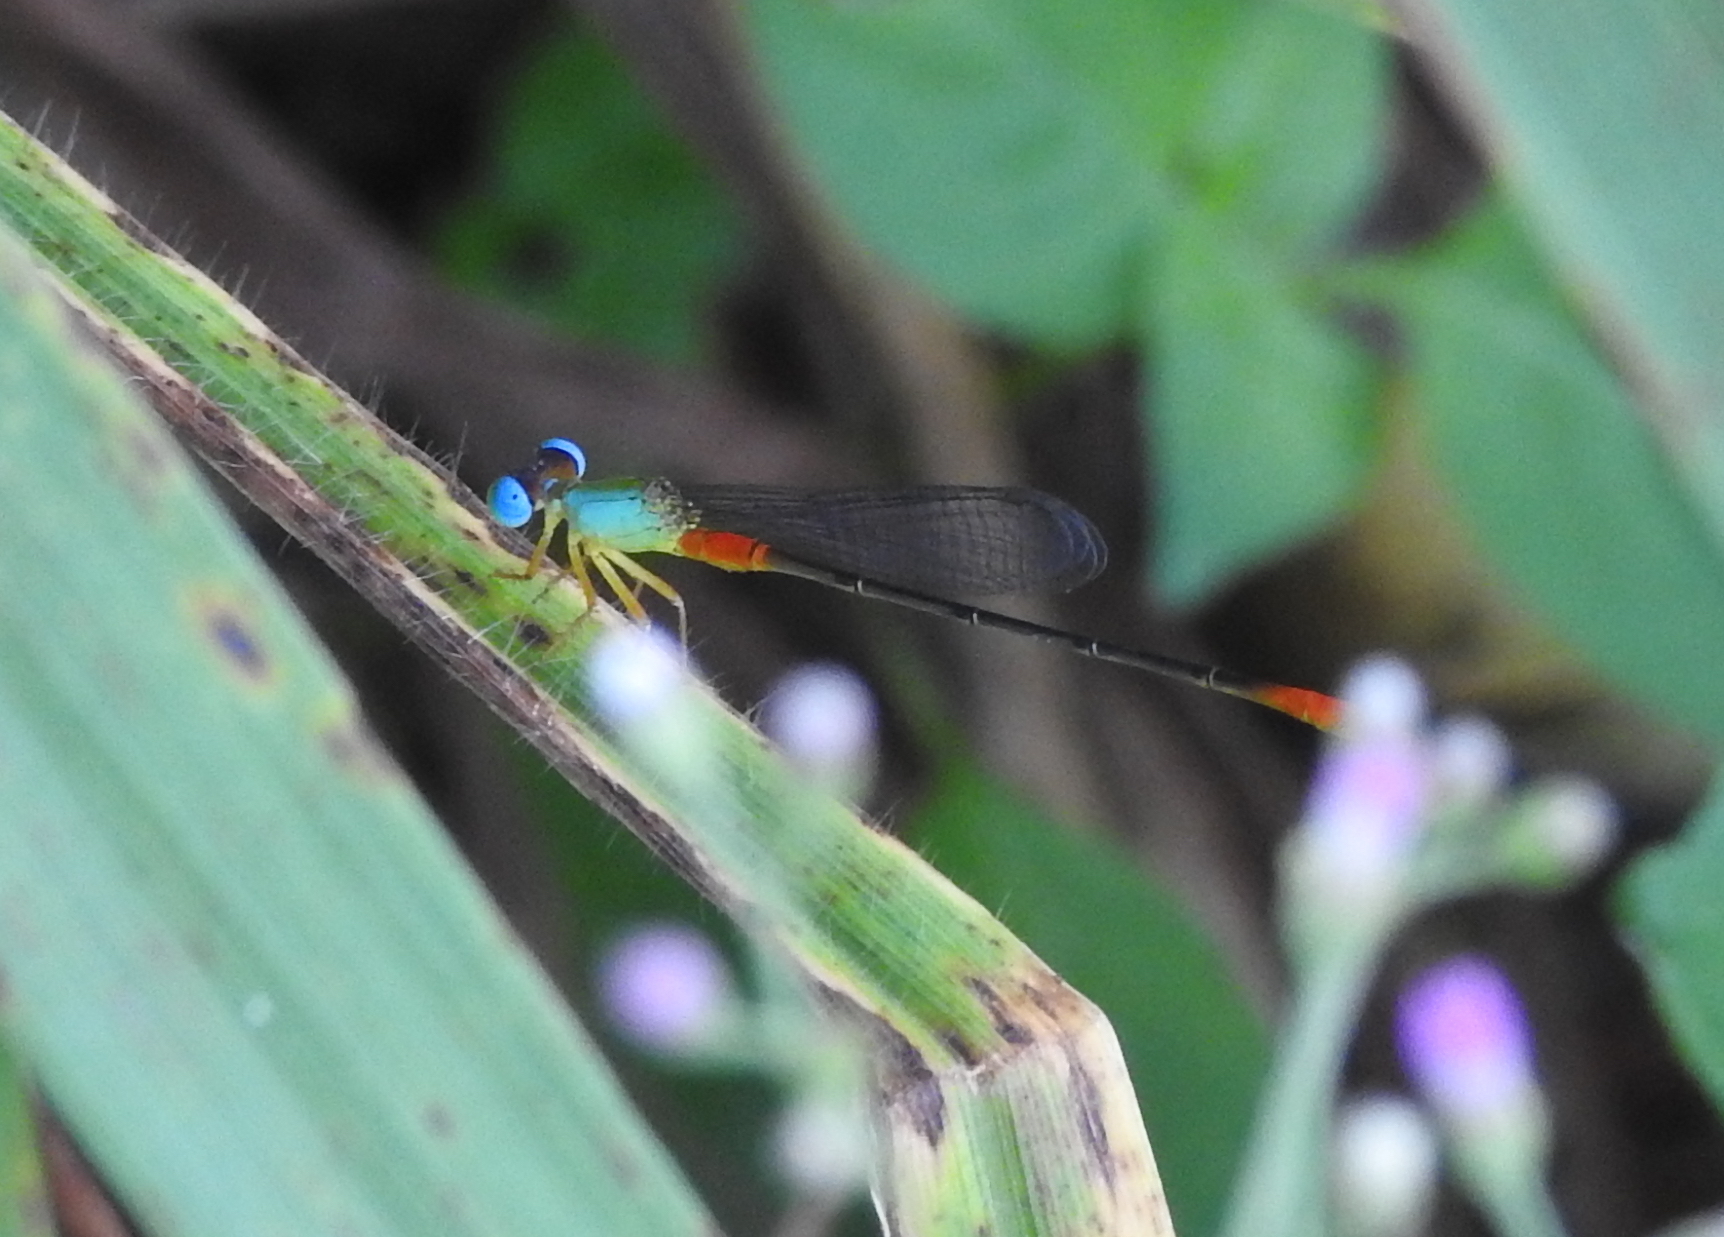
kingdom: Animalia
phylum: Arthropoda
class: Insecta
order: Odonata
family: Coenagrionidae
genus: Ceriagrion
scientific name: Ceriagrion cerinorubellum
